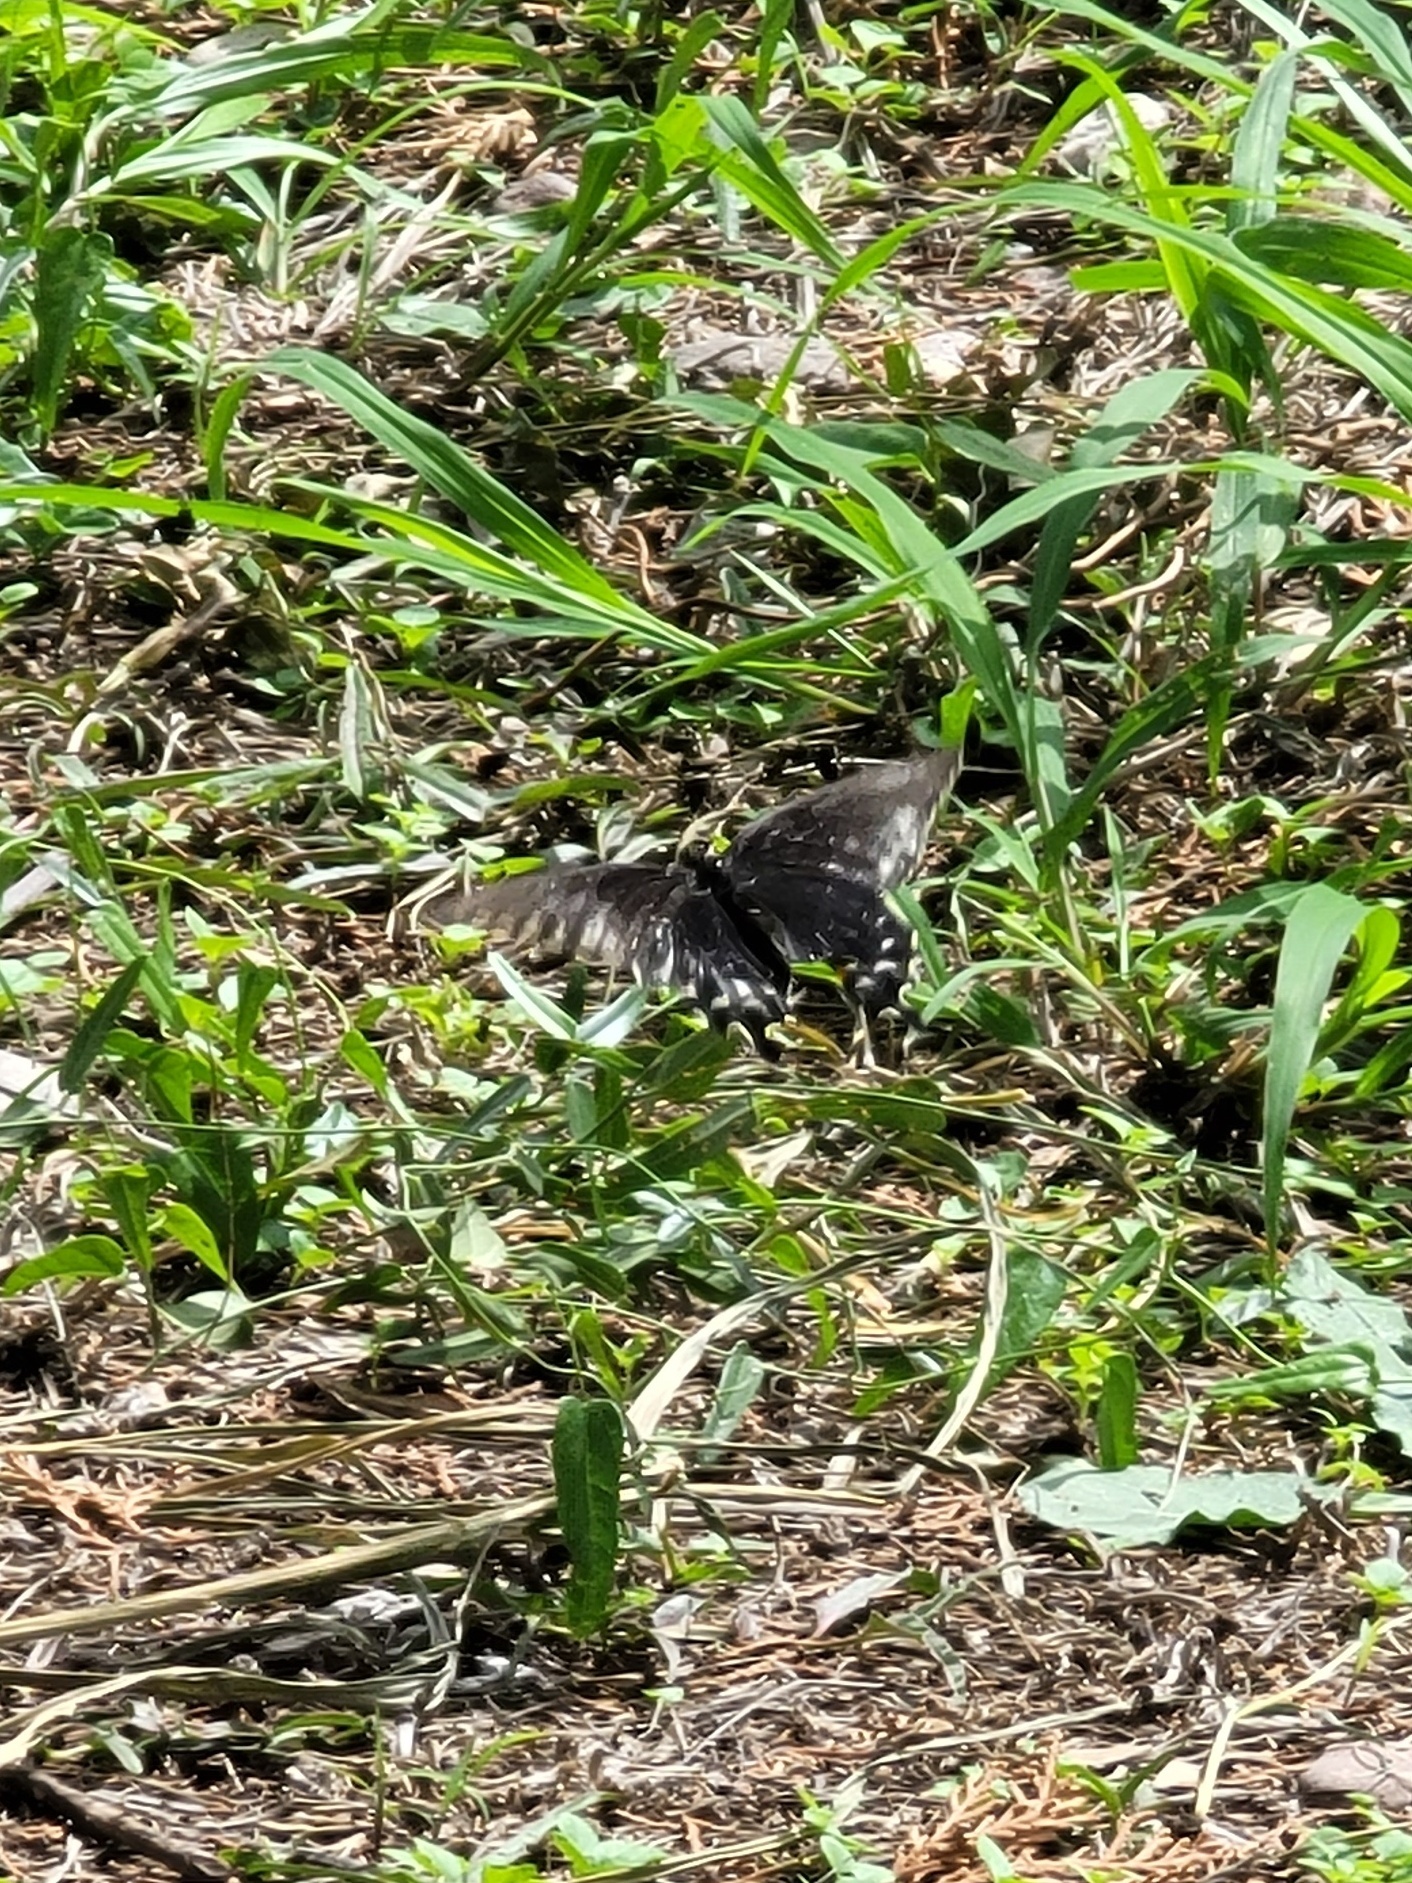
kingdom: Animalia
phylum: Arthropoda
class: Insecta
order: Lepidoptera
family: Papilionidae
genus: Battus
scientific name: Battus philenor
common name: Pipevine swallowtail
